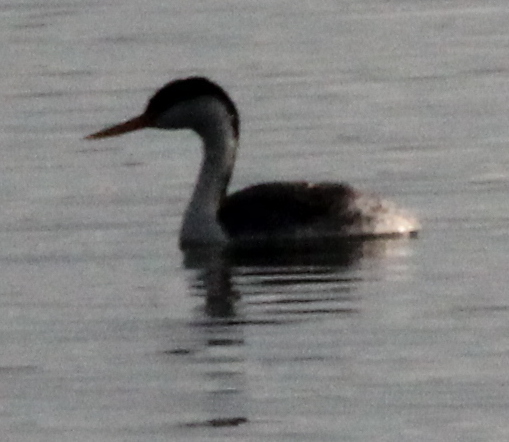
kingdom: Animalia
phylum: Chordata
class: Aves
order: Podicipediformes
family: Podicipedidae
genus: Aechmophorus
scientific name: Aechmophorus occidentalis
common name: Western grebe
